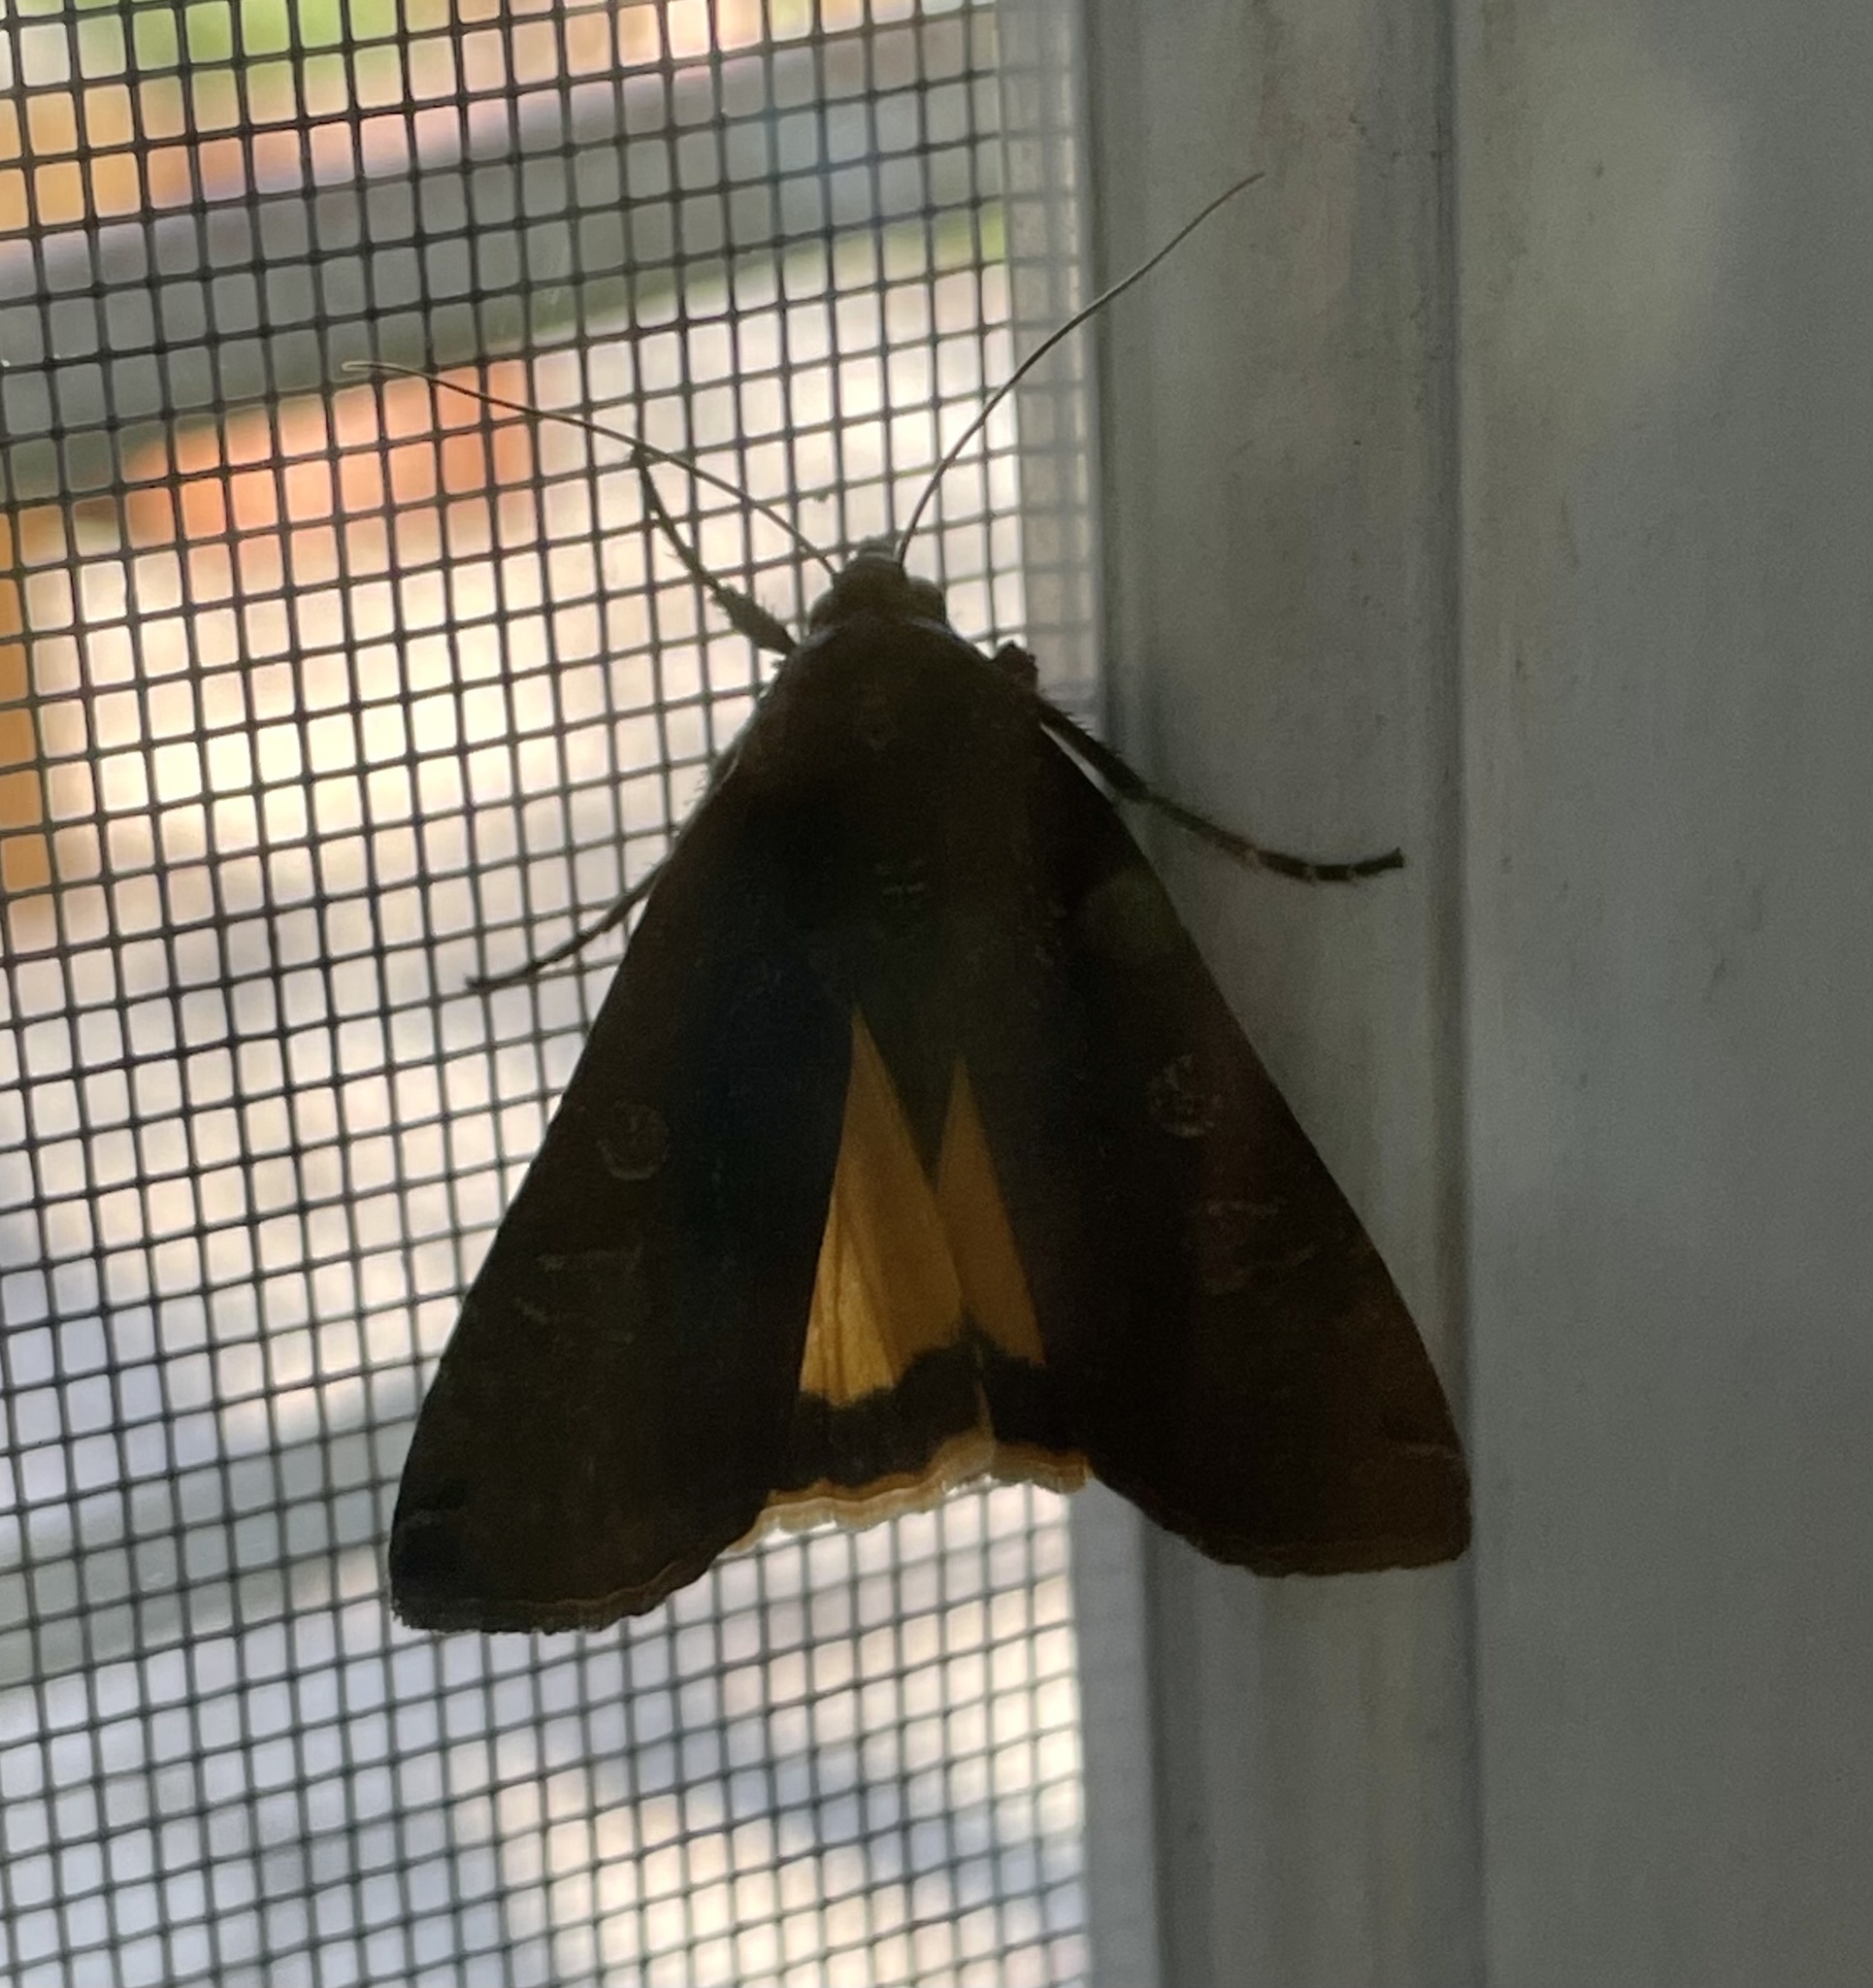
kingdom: Animalia
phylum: Arthropoda
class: Insecta
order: Lepidoptera
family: Noctuidae
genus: Noctua
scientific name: Noctua pronuba
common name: Large yellow underwing
